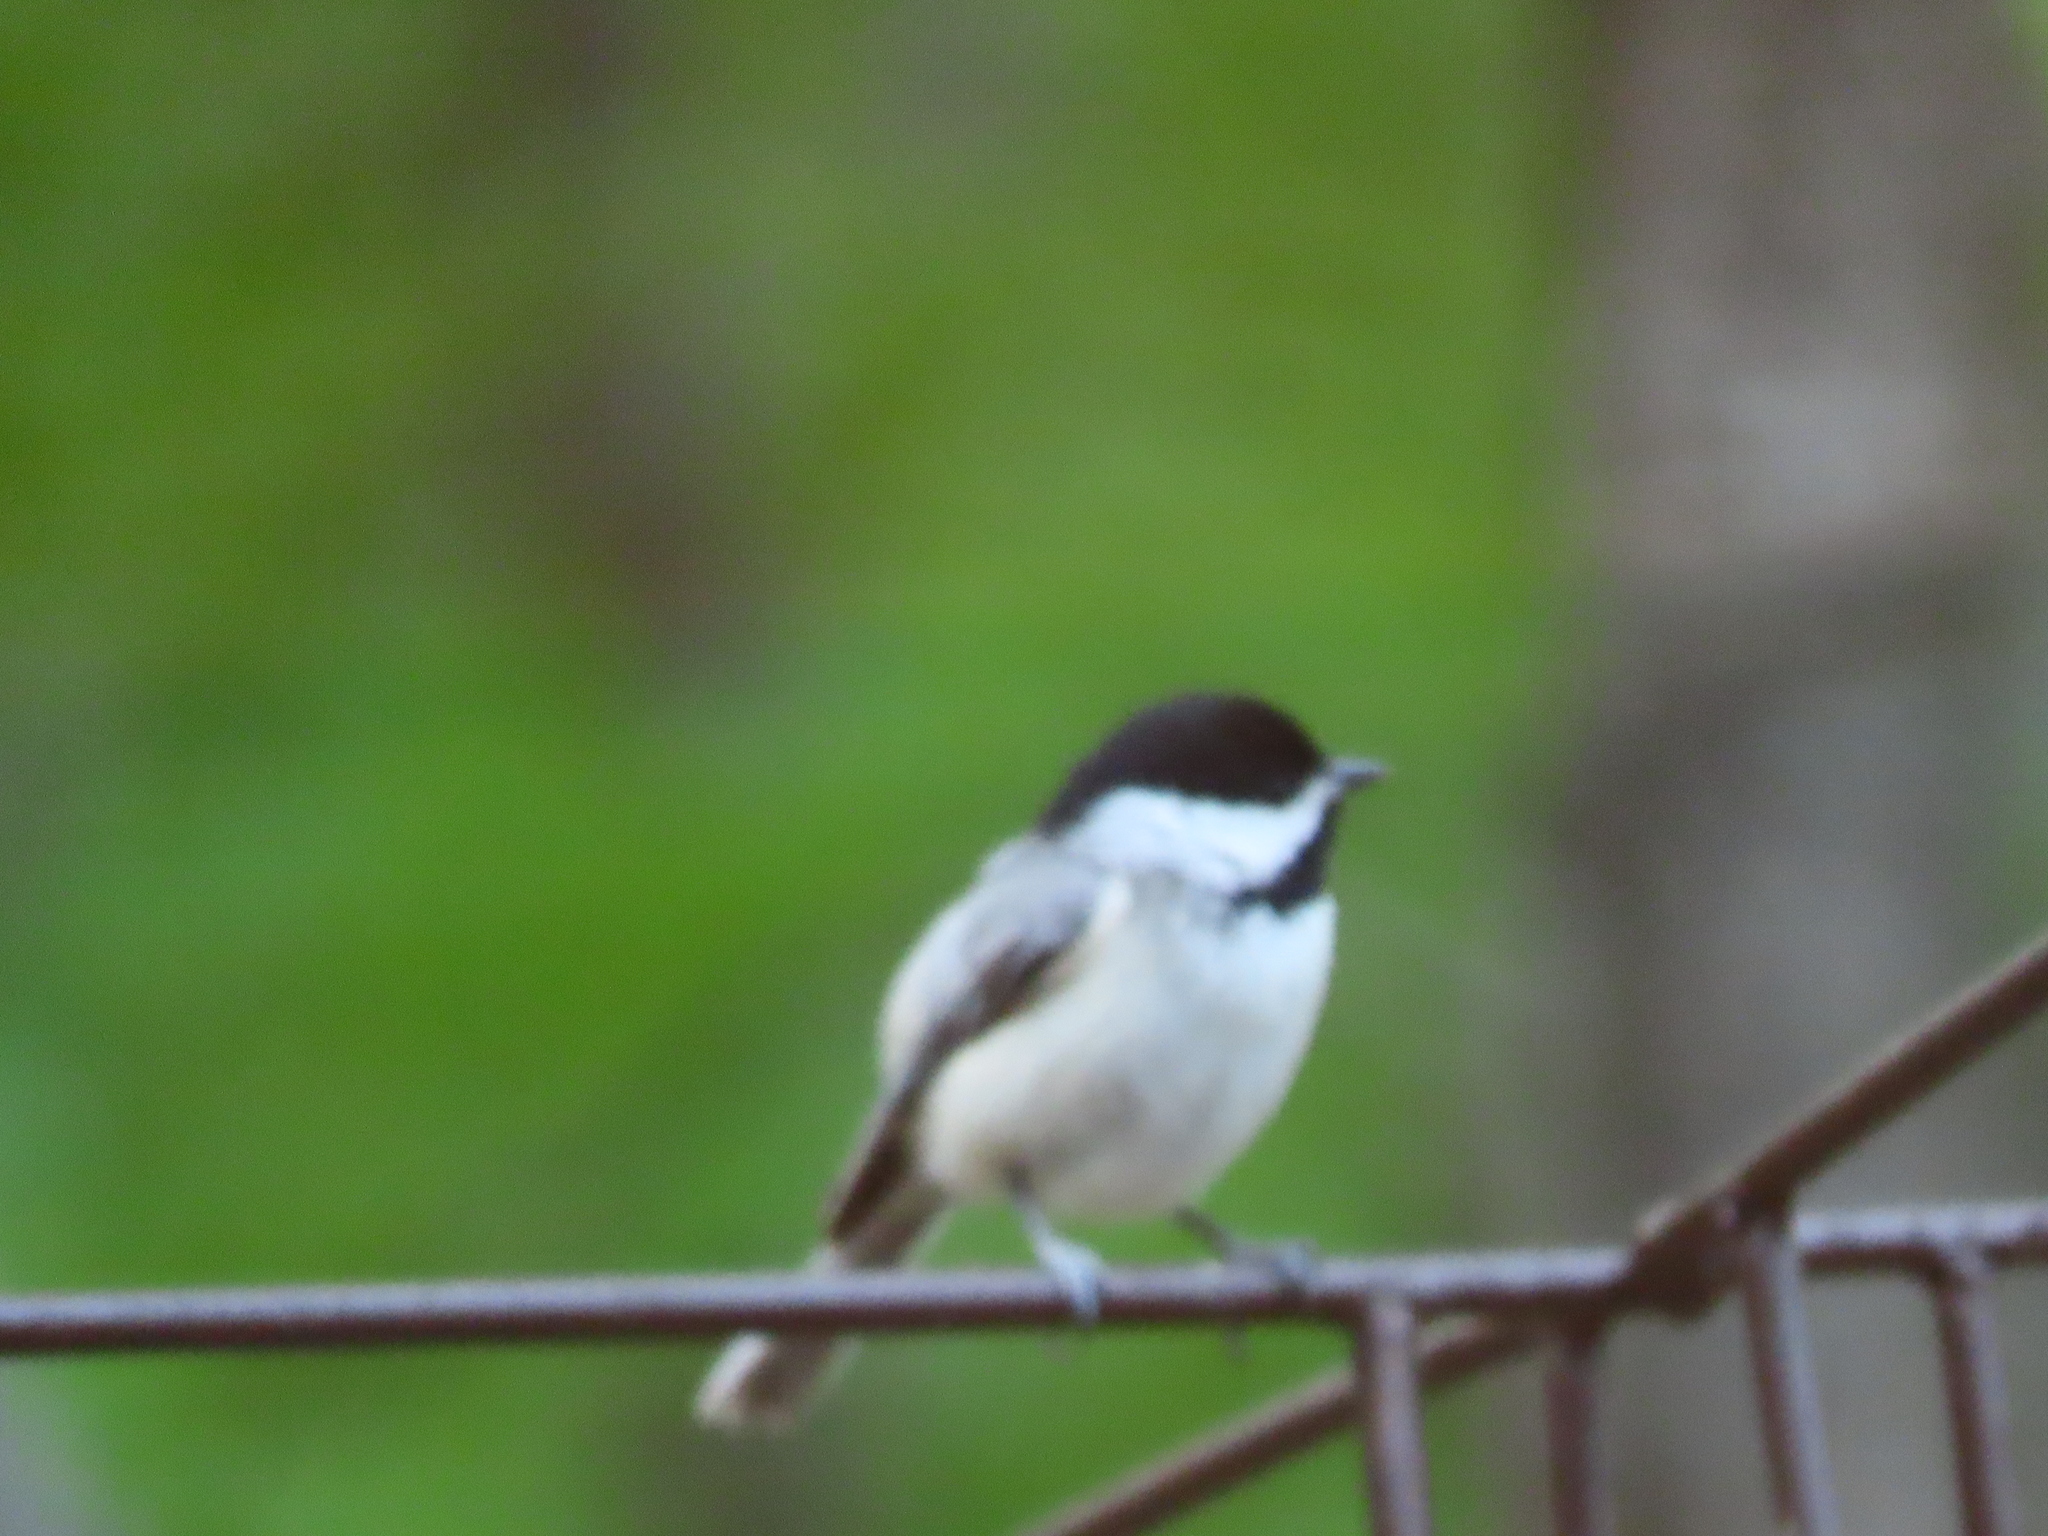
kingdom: Animalia
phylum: Chordata
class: Aves
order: Passeriformes
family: Paridae
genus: Poecile
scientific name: Poecile carolinensis
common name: Carolina chickadee
